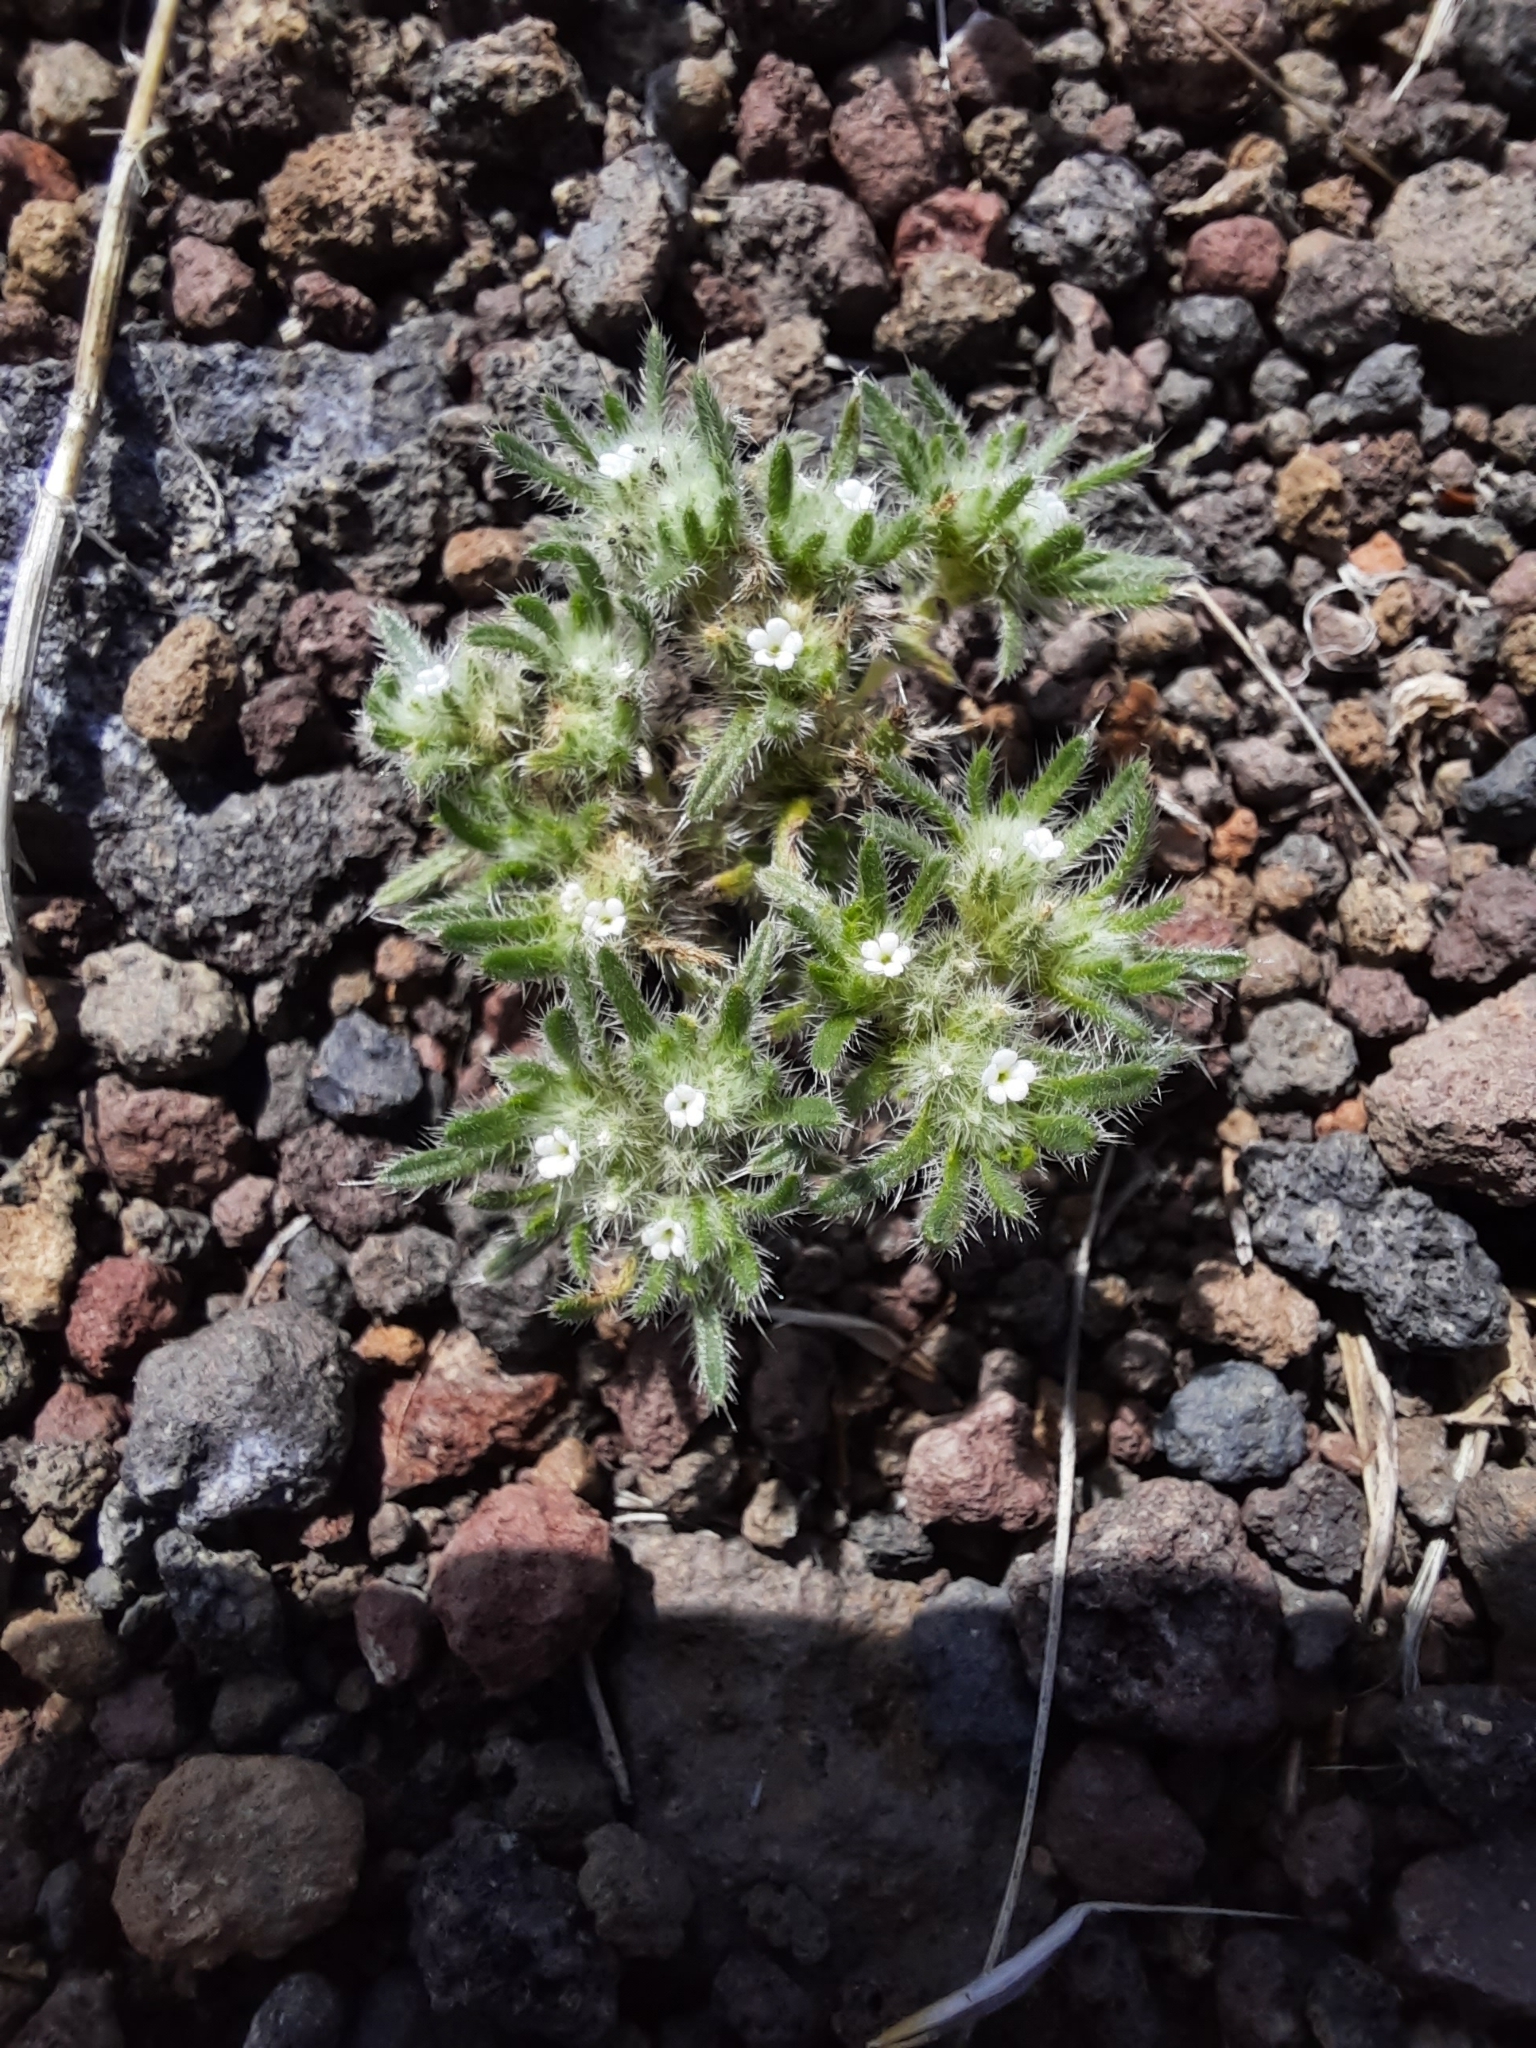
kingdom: Plantae
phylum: Tracheophyta
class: Magnoliopsida
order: Boraginales
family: Boraginaceae
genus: Greeneocharis
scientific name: Greeneocharis circumscissa
